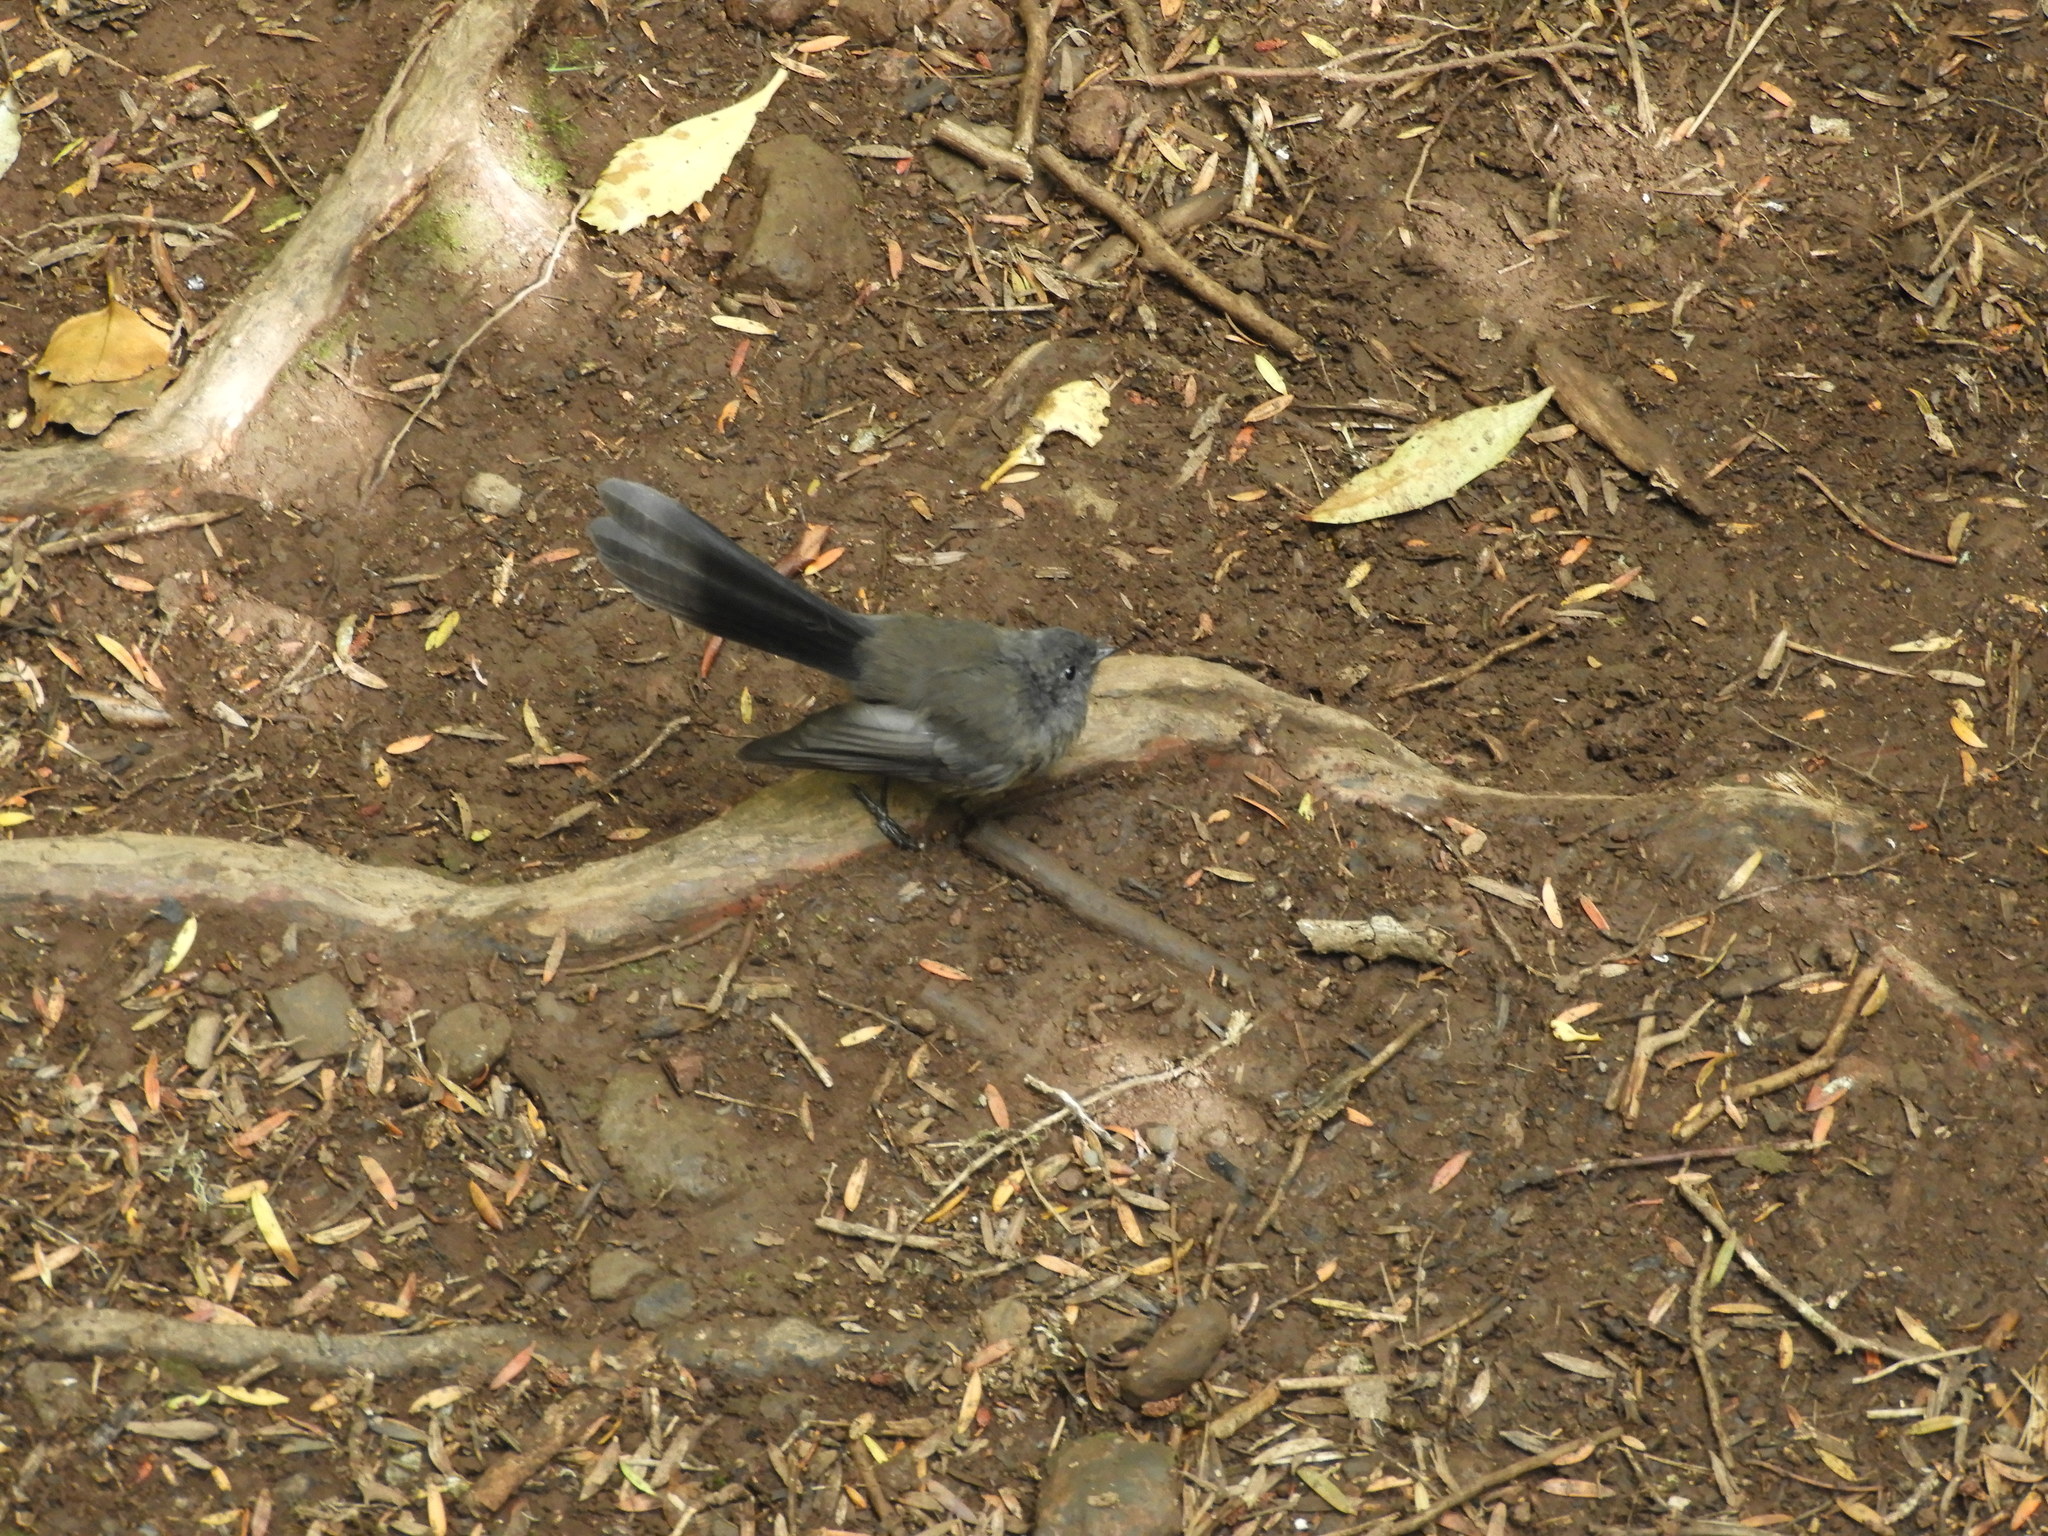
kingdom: Animalia
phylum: Chordata
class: Aves
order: Passeriformes
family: Rhipiduridae
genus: Rhipidura
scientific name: Rhipidura fuliginosa
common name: New zealand fantail
